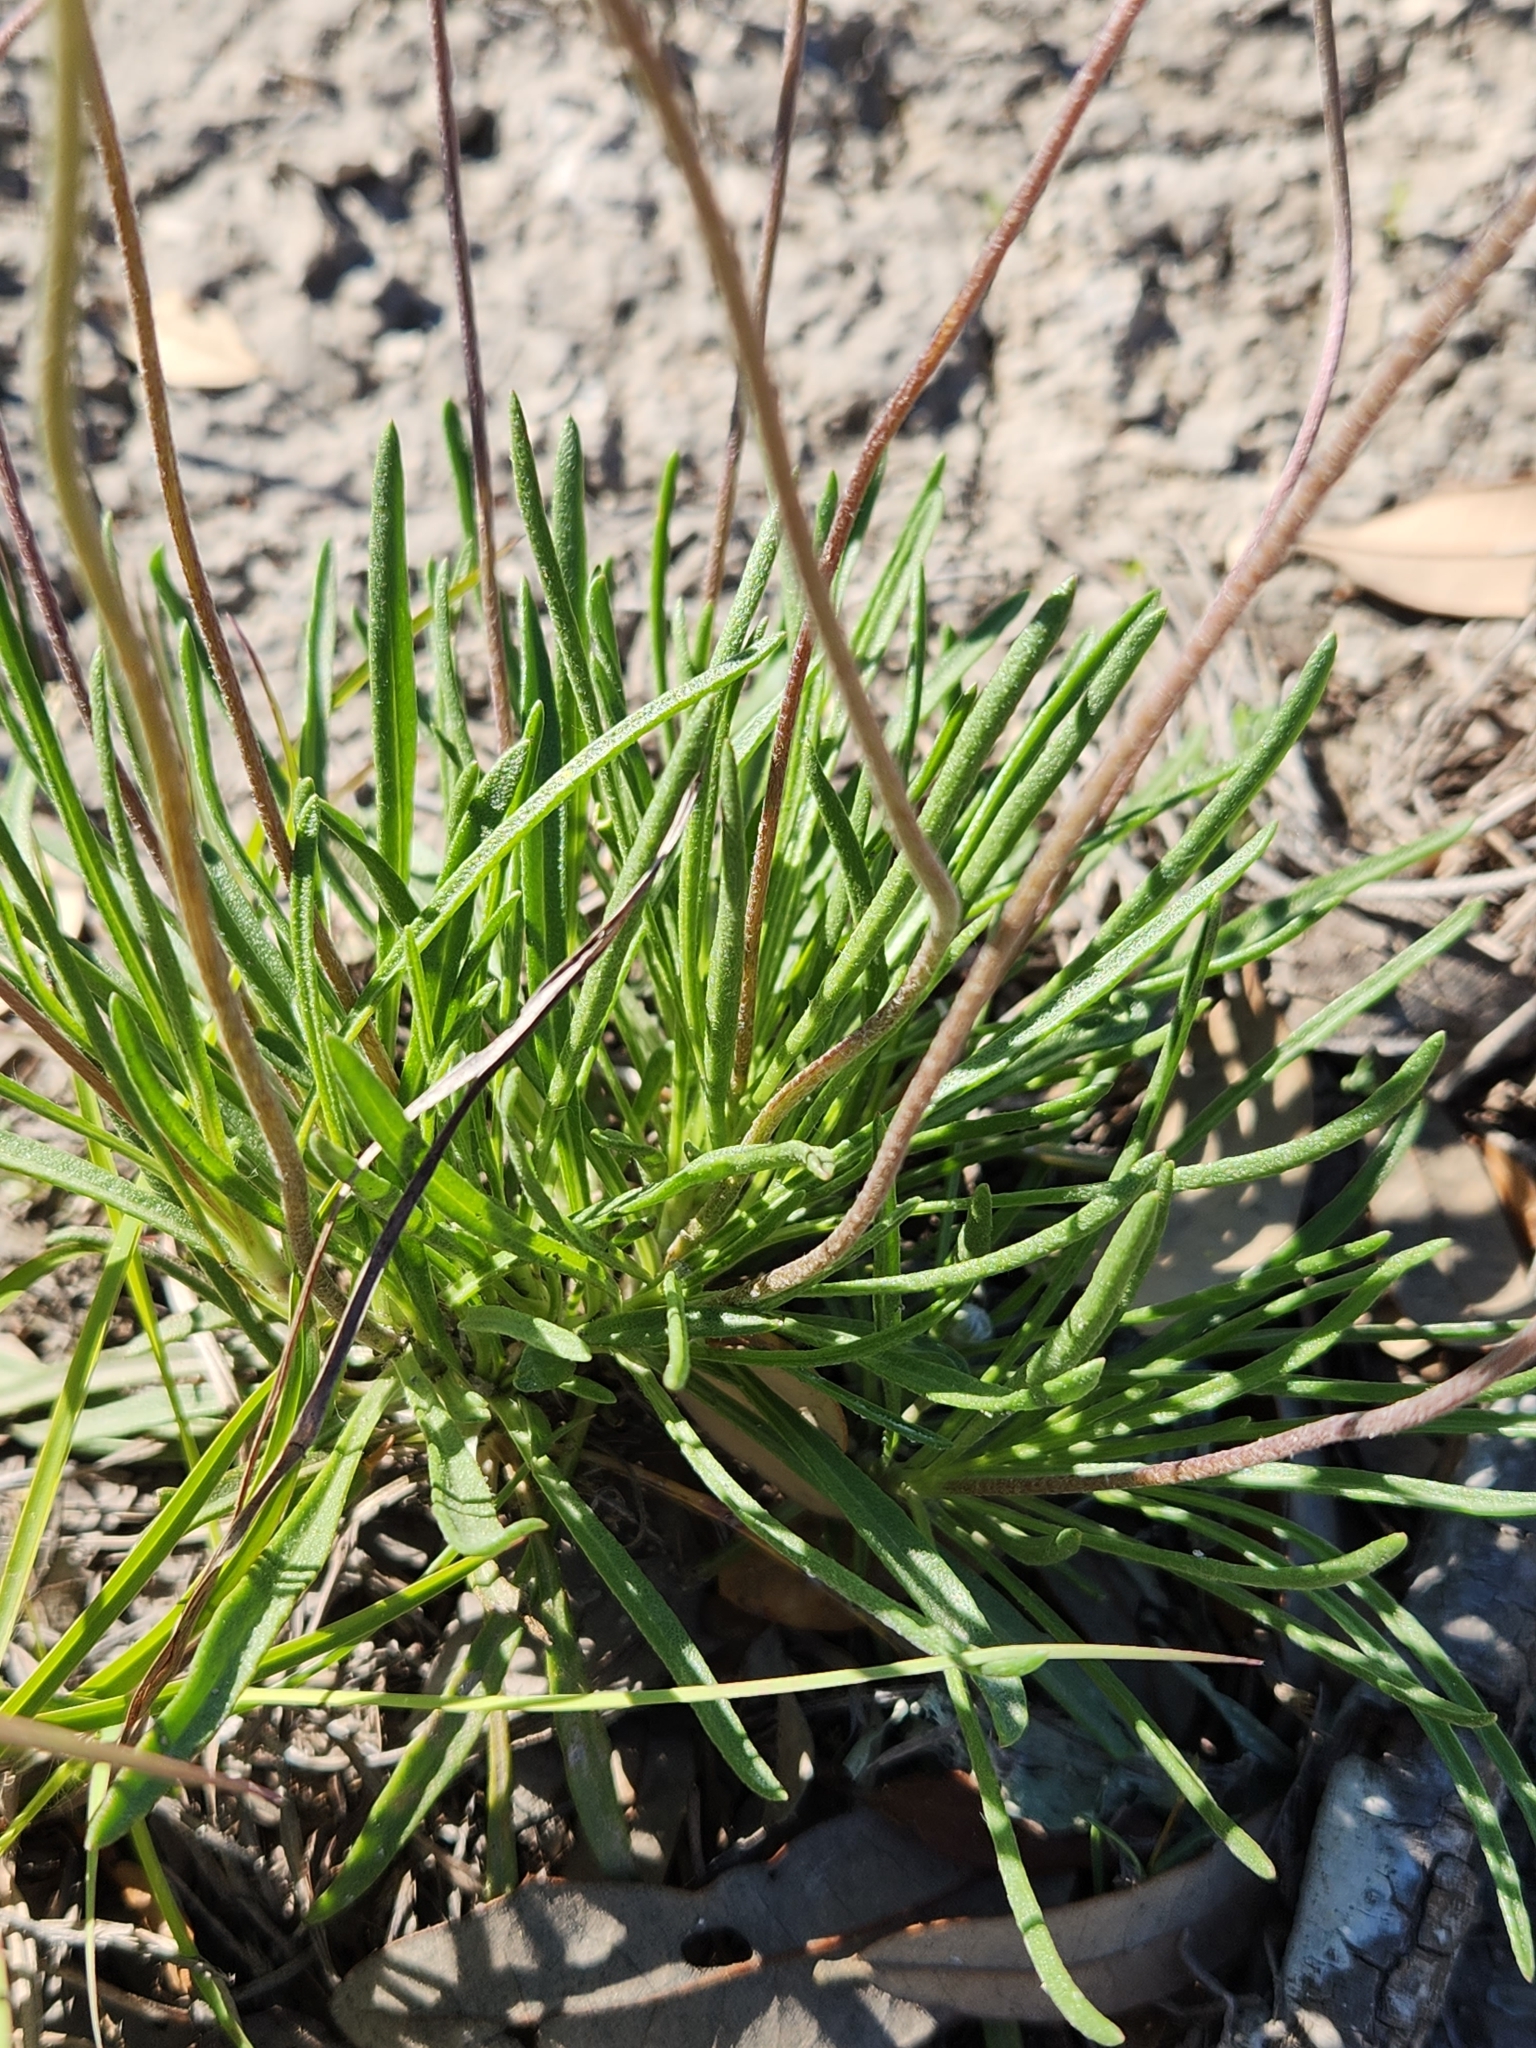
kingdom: Plantae
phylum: Tracheophyta
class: Magnoliopsida
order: Asterales
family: Asteraceae
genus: Tetraneuris
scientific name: Tetraneuris scaposa
